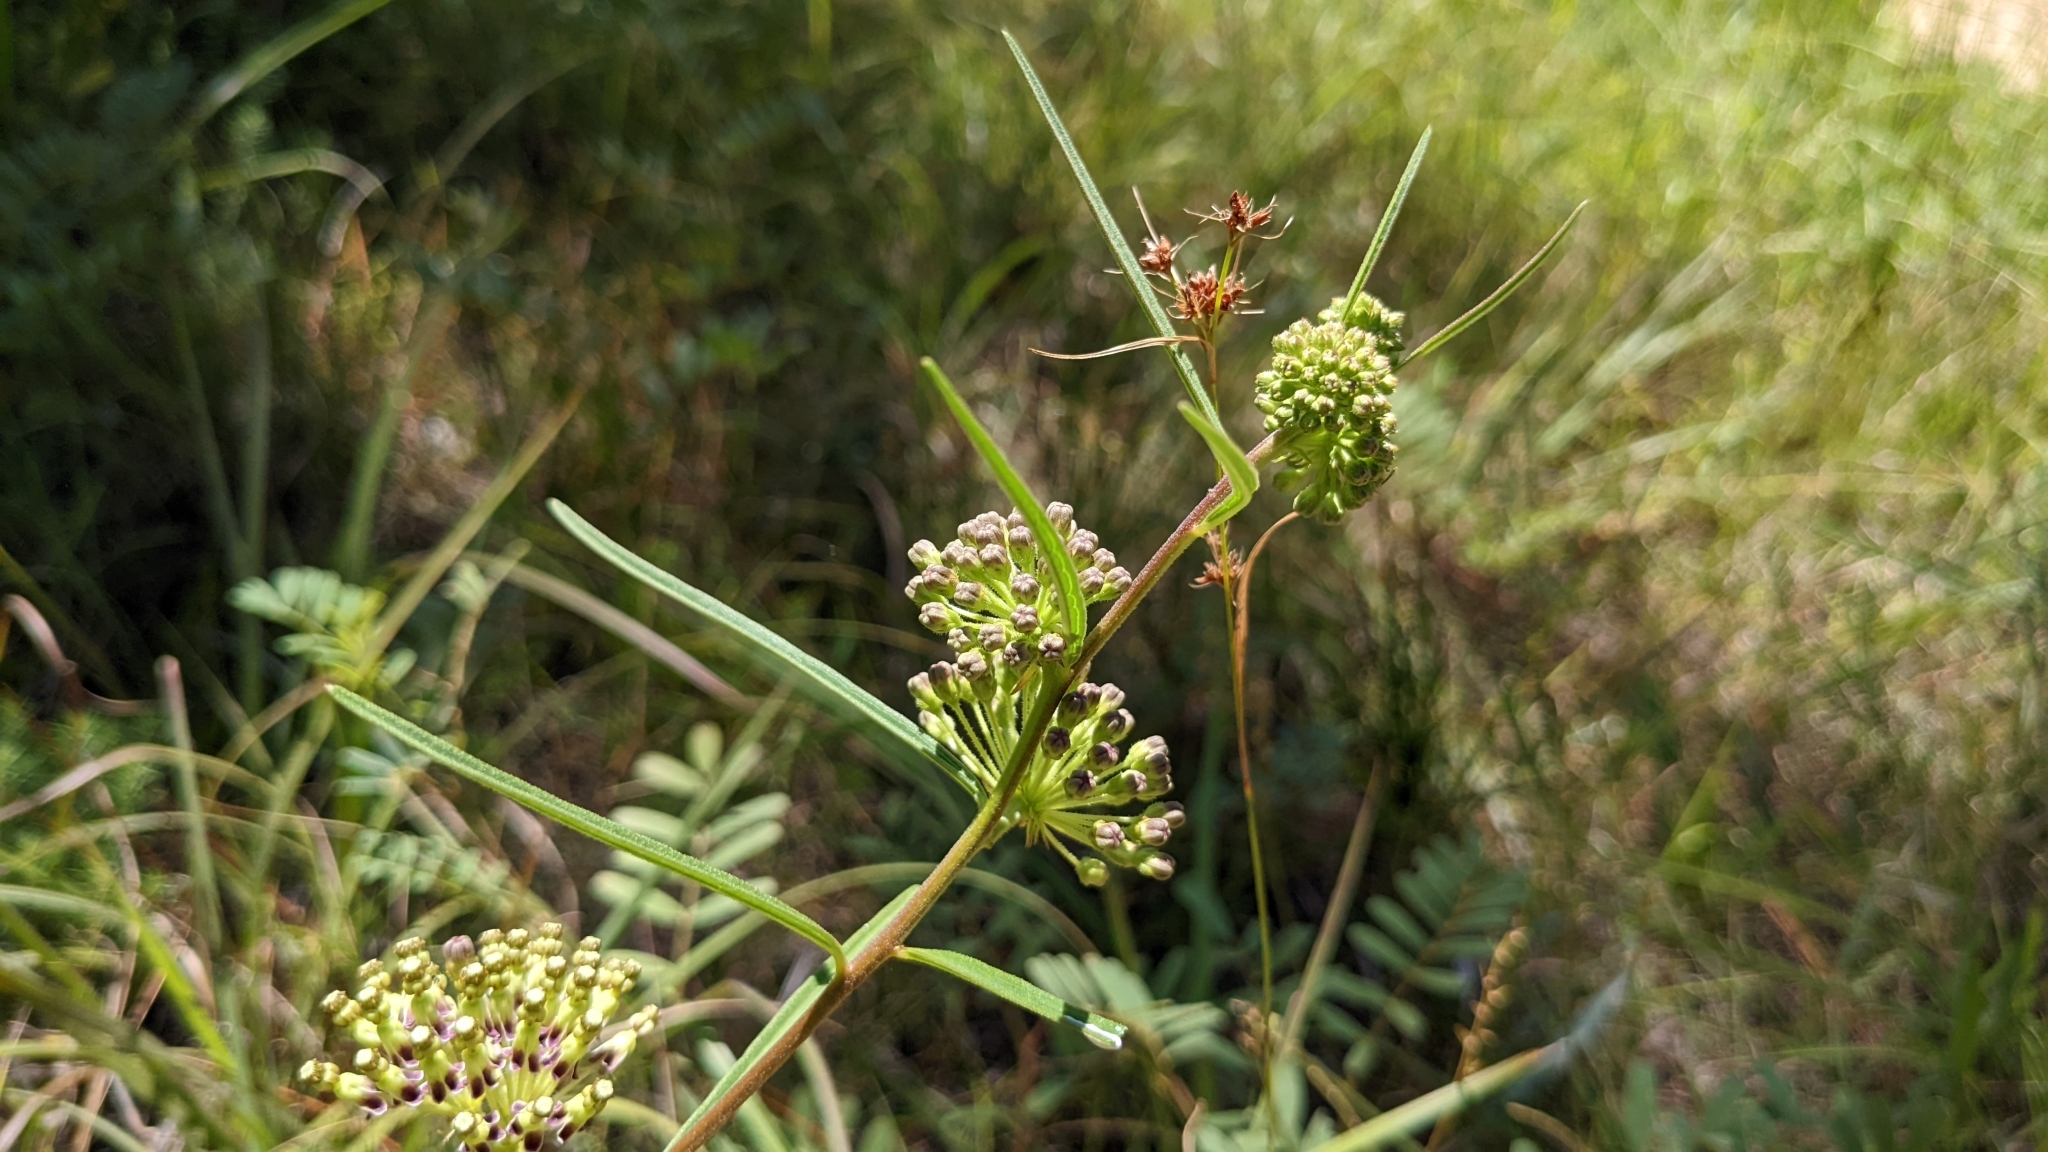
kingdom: Plantae
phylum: Tracheophyta
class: Magnoliopsida
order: Gentianales
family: Apocynaceae
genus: Asclepias
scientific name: Asclepias hirtella
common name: Prairie milkweed
